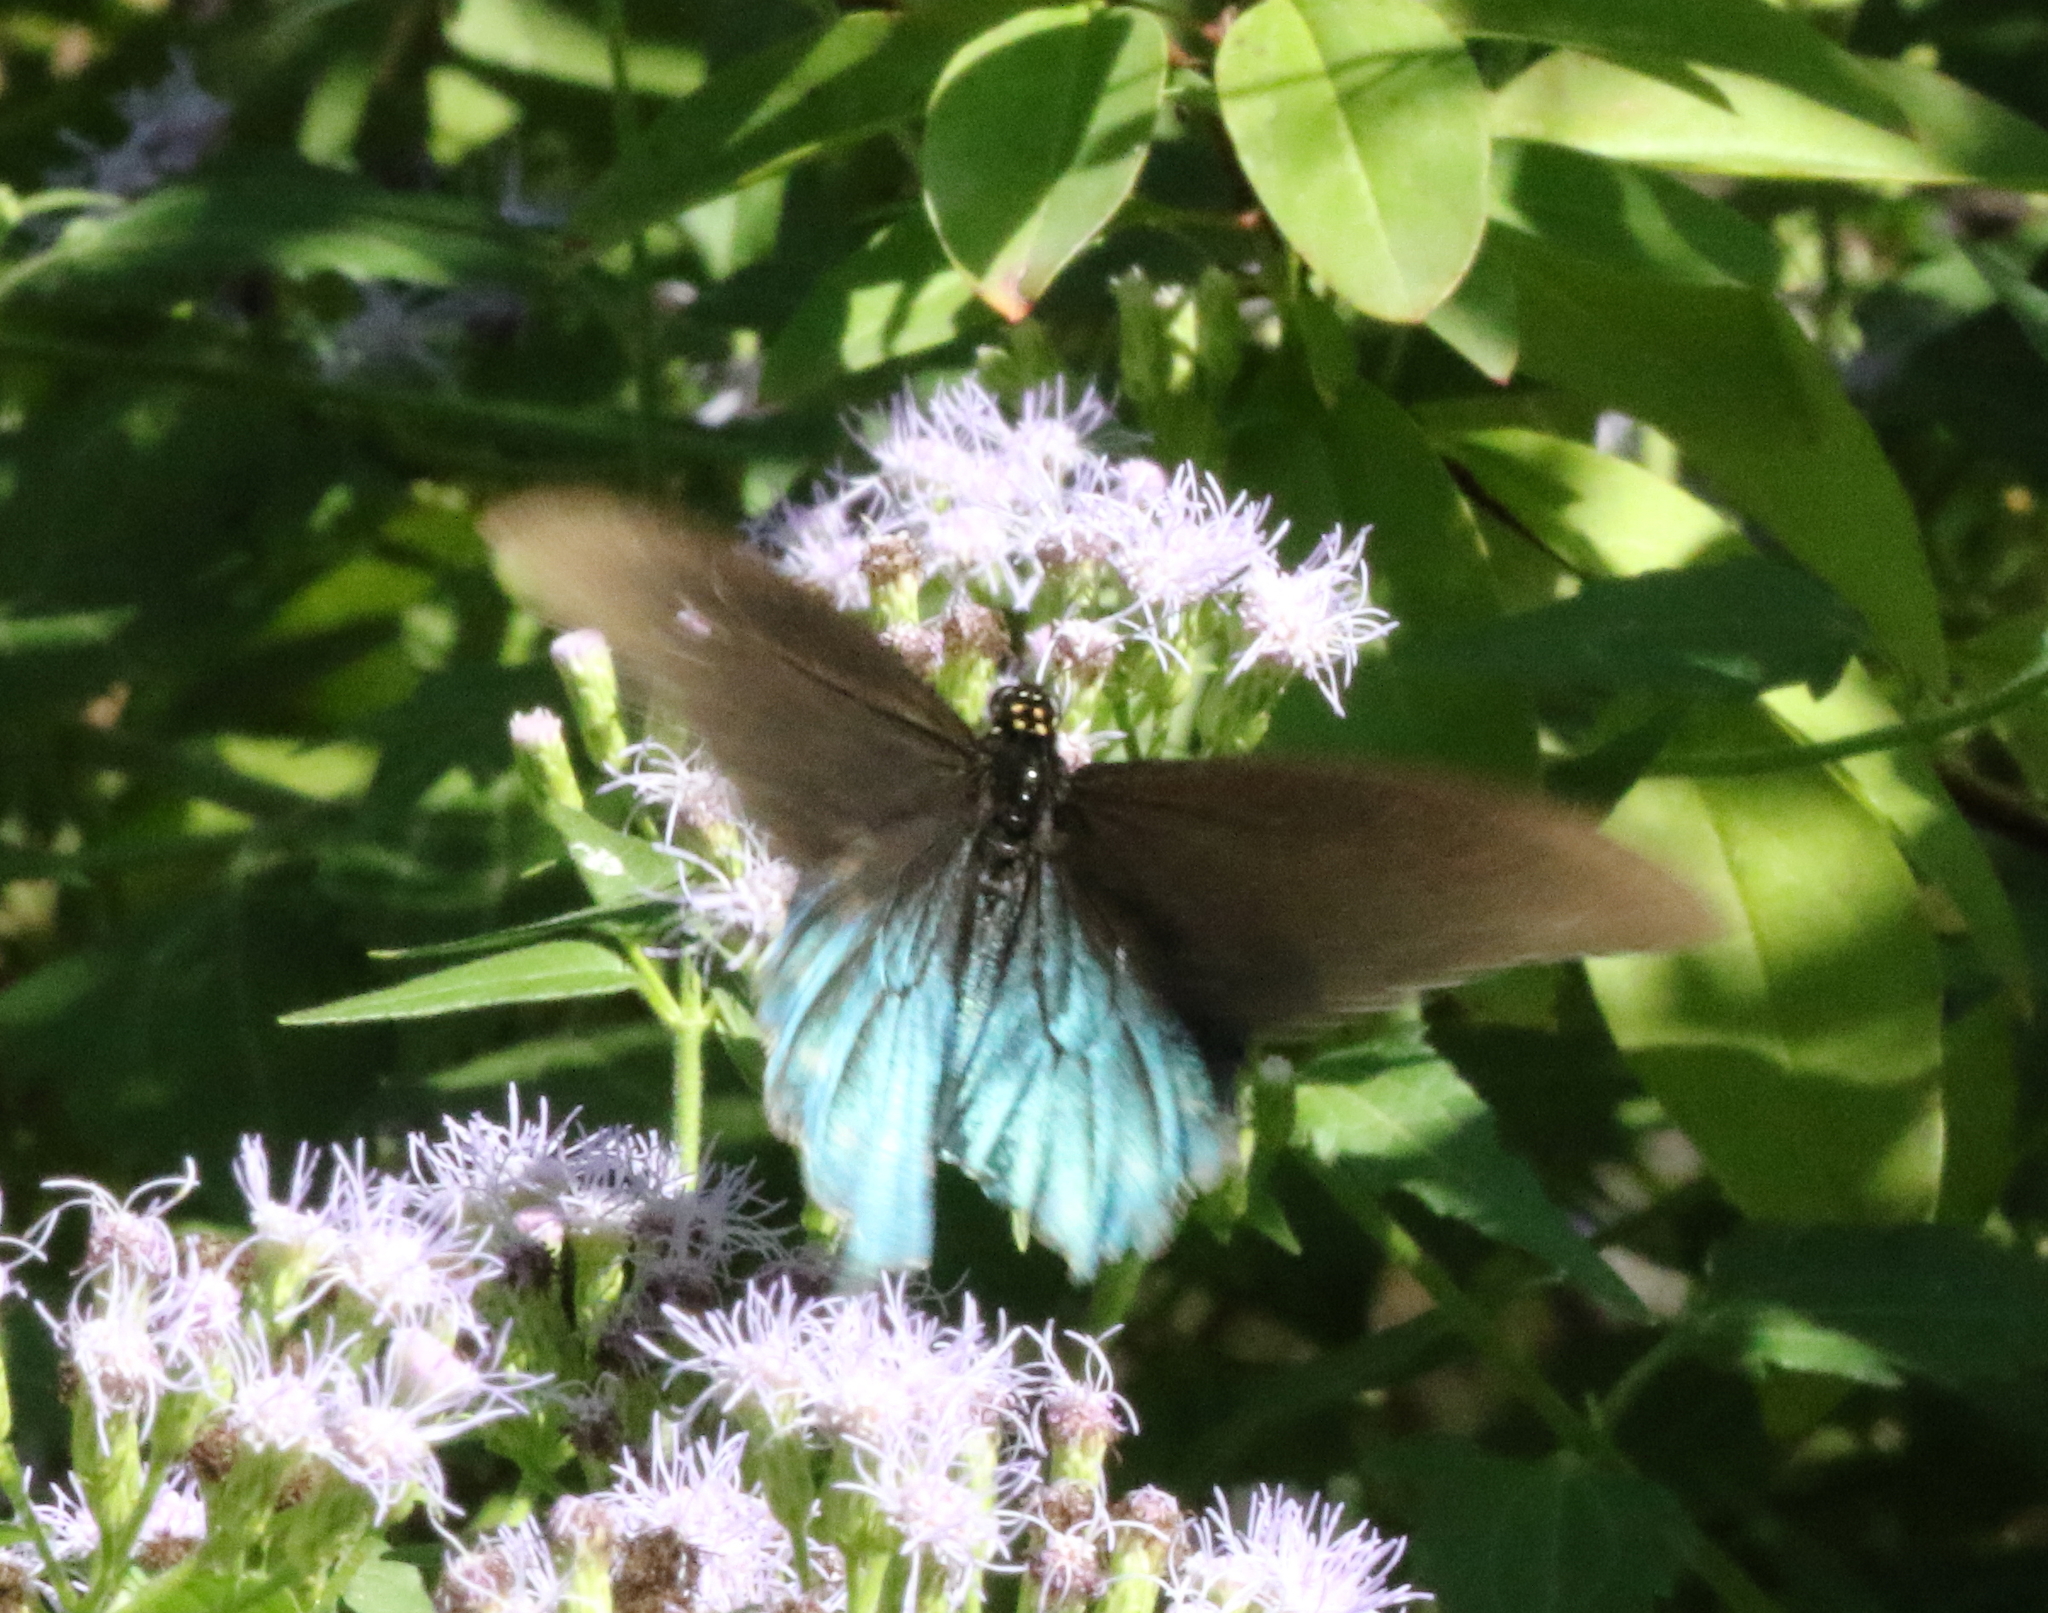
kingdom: Animalia
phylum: Arthropoda
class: Insecta
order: Lepidoptera
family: Papilionidae
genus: Battus
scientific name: Battus philenor
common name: Pipevine swallowtail
